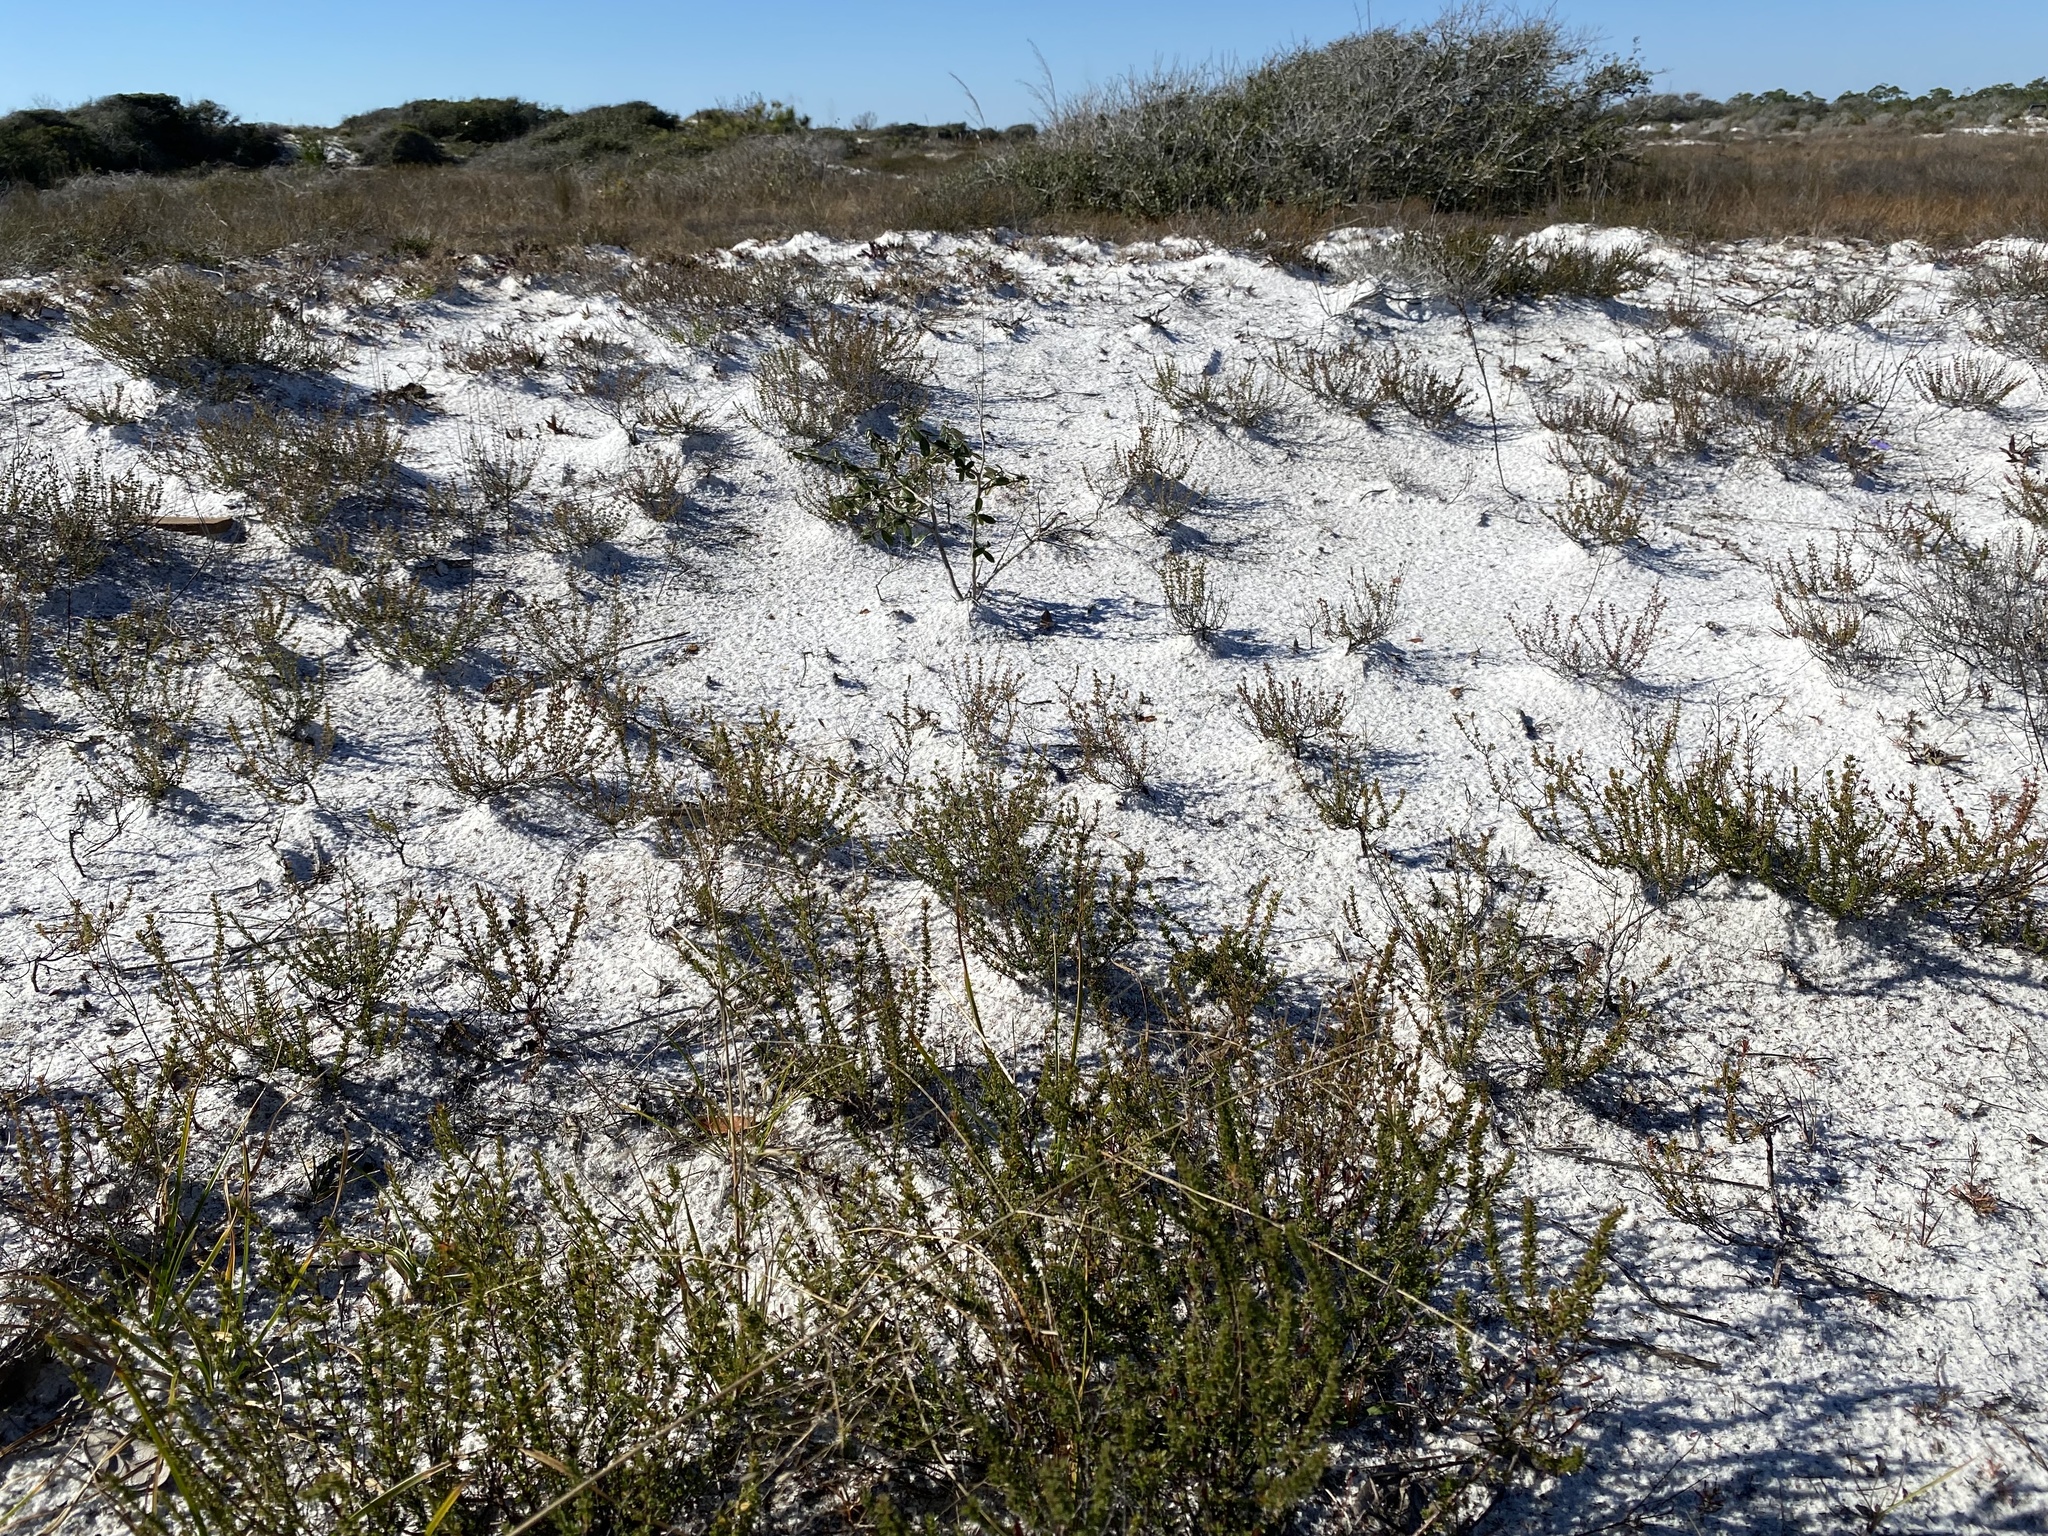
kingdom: Plantae
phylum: Tracheophyta
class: Magnoliopsida
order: Malpighiales
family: Hypericaceae
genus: Hypericum
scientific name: Hypericum tenuifolium
